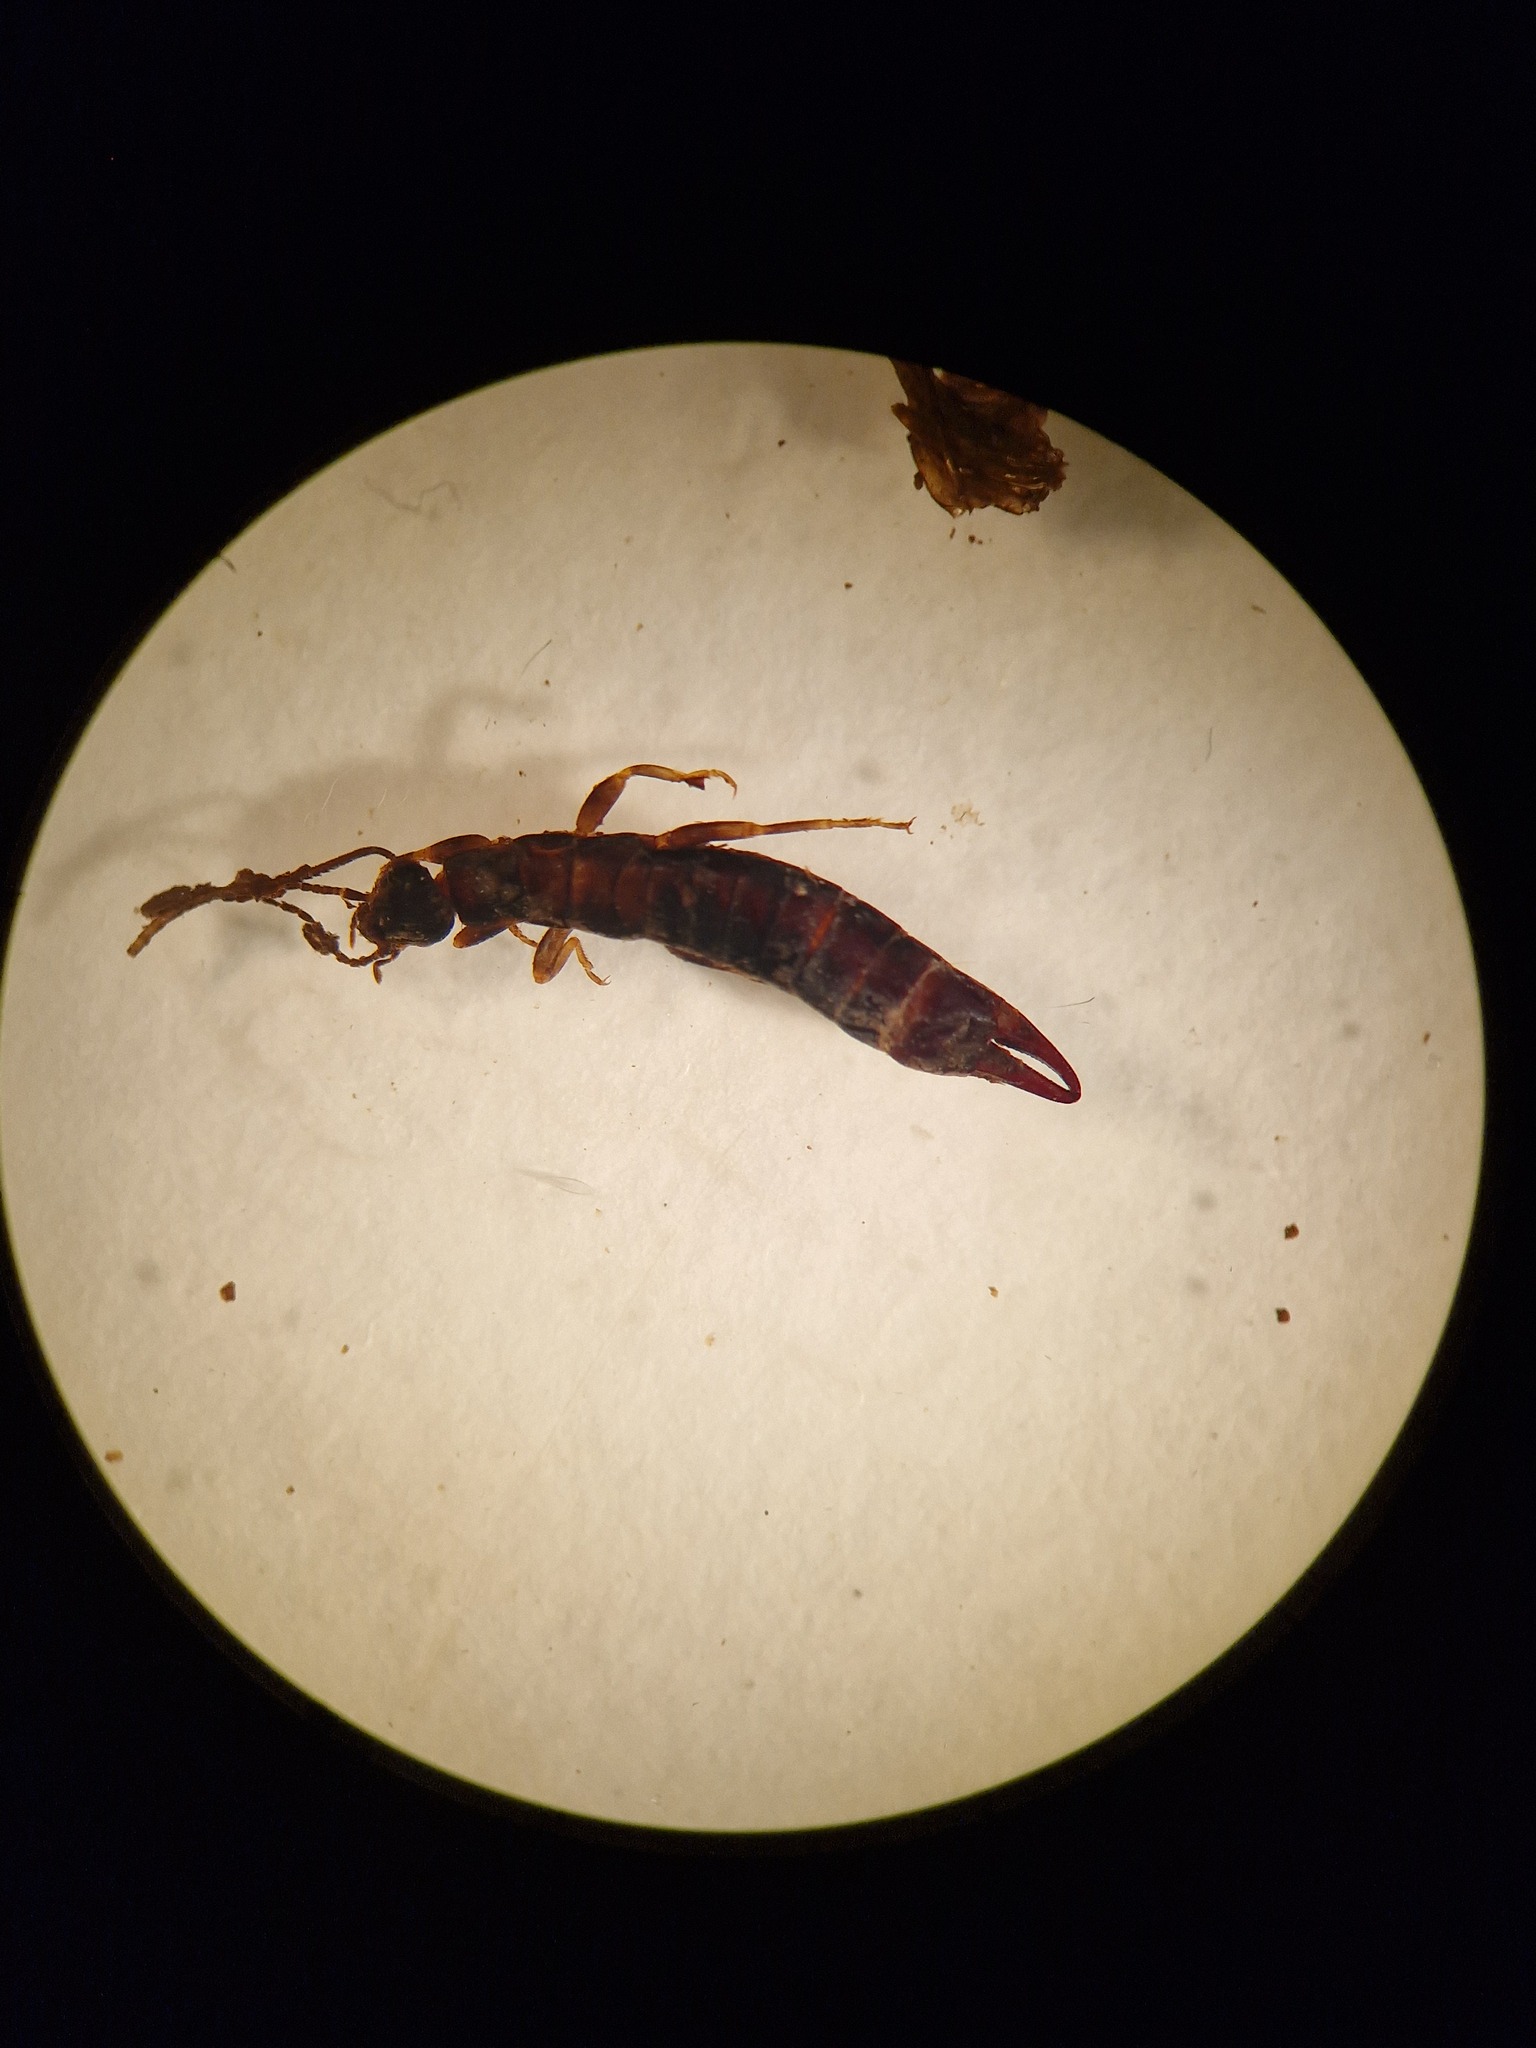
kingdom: Animalia
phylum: Arthropoda
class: Insecta
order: Dermaptera
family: Anisolabididae
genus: Euborellia
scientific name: Euborellia moesta
